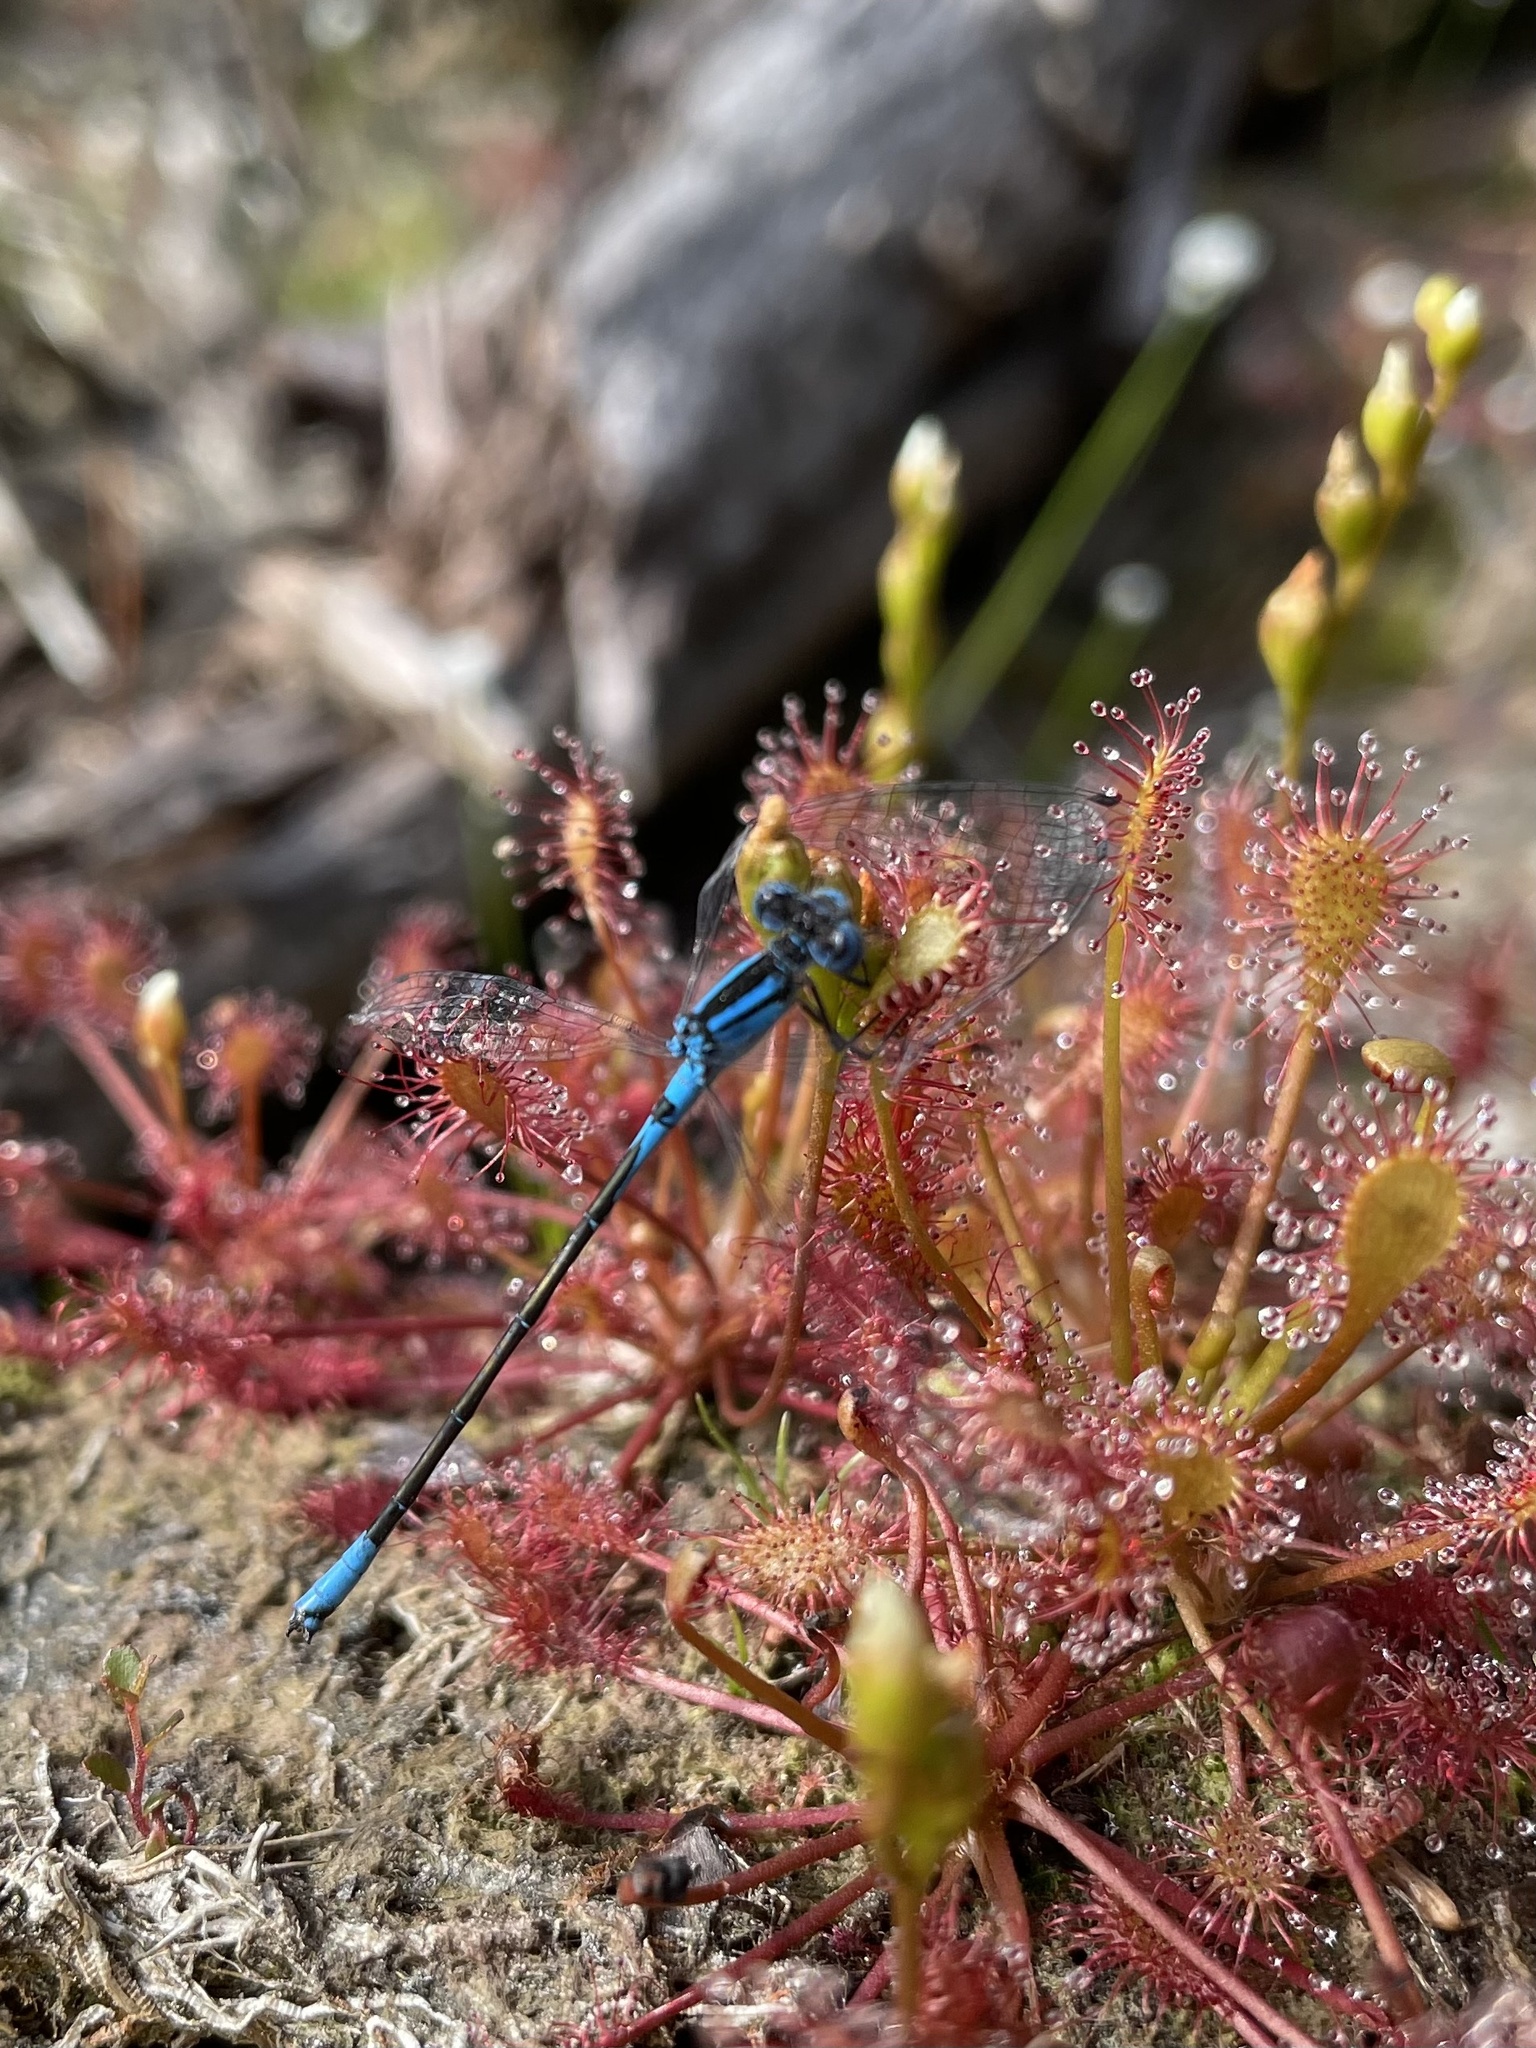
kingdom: Animalia
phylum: Arthropoda
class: Insecta
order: Odonata
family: Coenagrionidae
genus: Enallagma
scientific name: Enallagma aspersum
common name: Azure bluet
